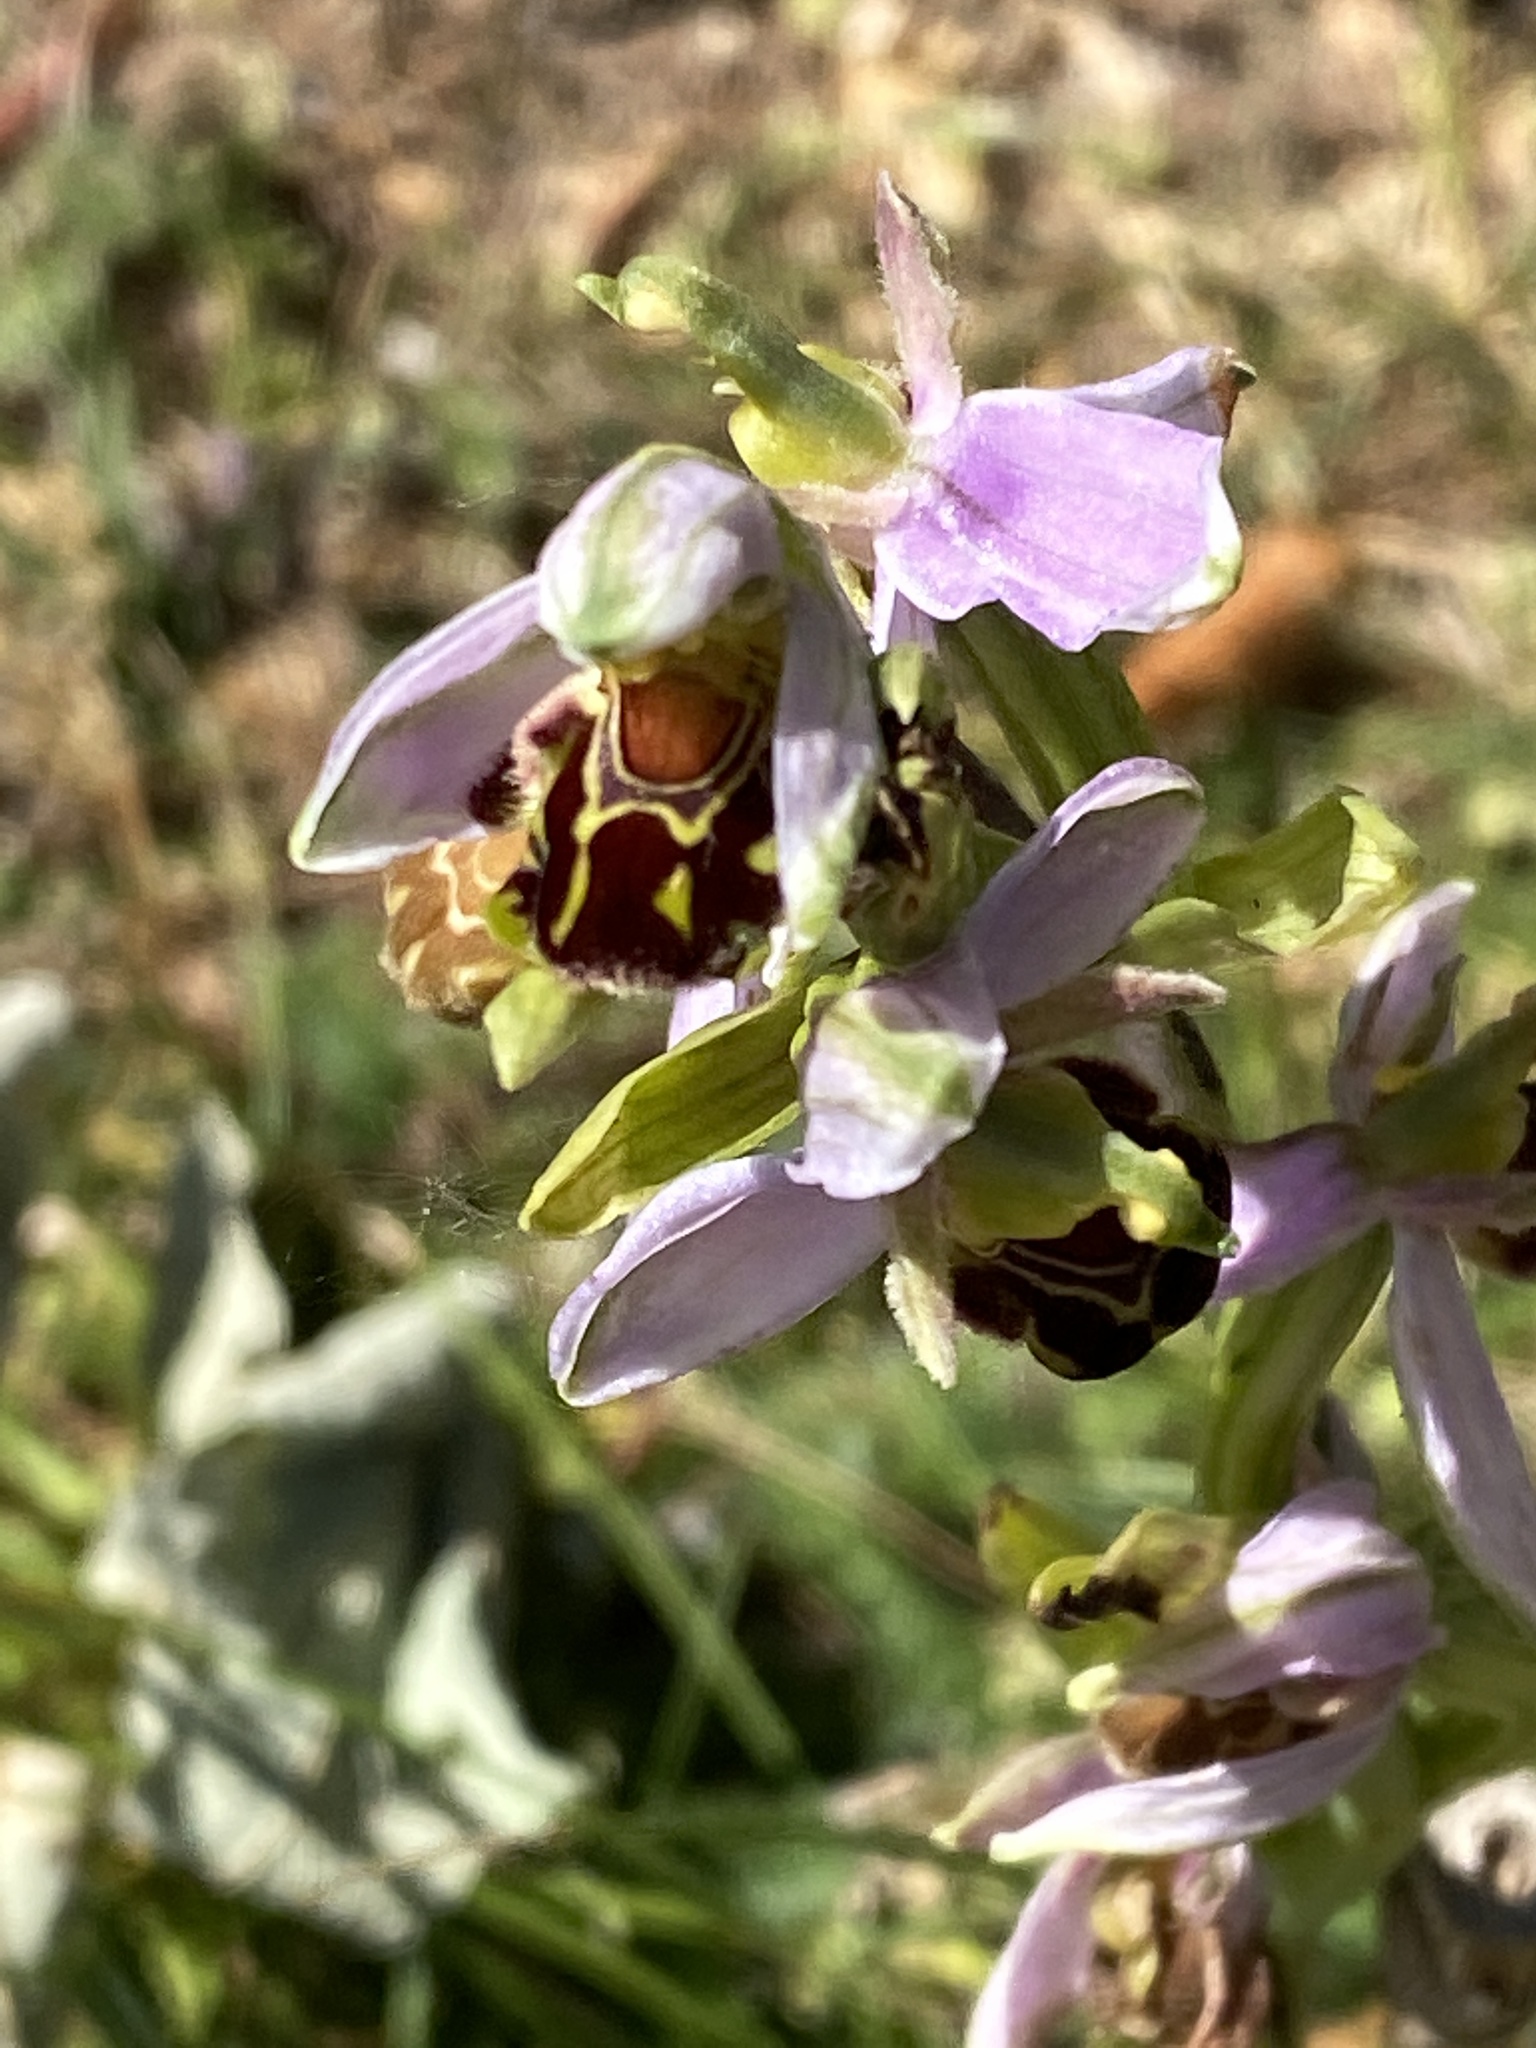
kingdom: Plantae
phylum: Tracheophyta
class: Liliopsida
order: Asparagales
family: Orchidaceae
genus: Ophrys
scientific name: Ophrys apifera
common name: Bee orchid
